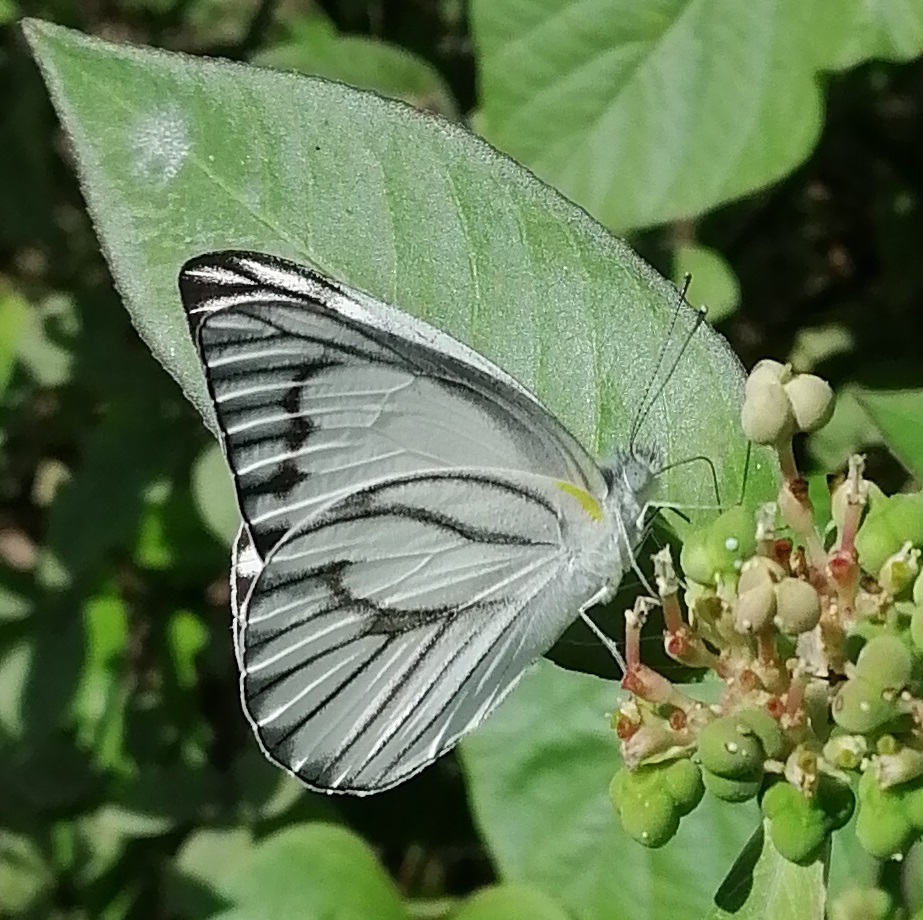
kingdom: Animalia
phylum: Arthropoda
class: Insecta
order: Lepidoptera
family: Pieridae
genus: Appias
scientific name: Appias libythea
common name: Striped albatross
